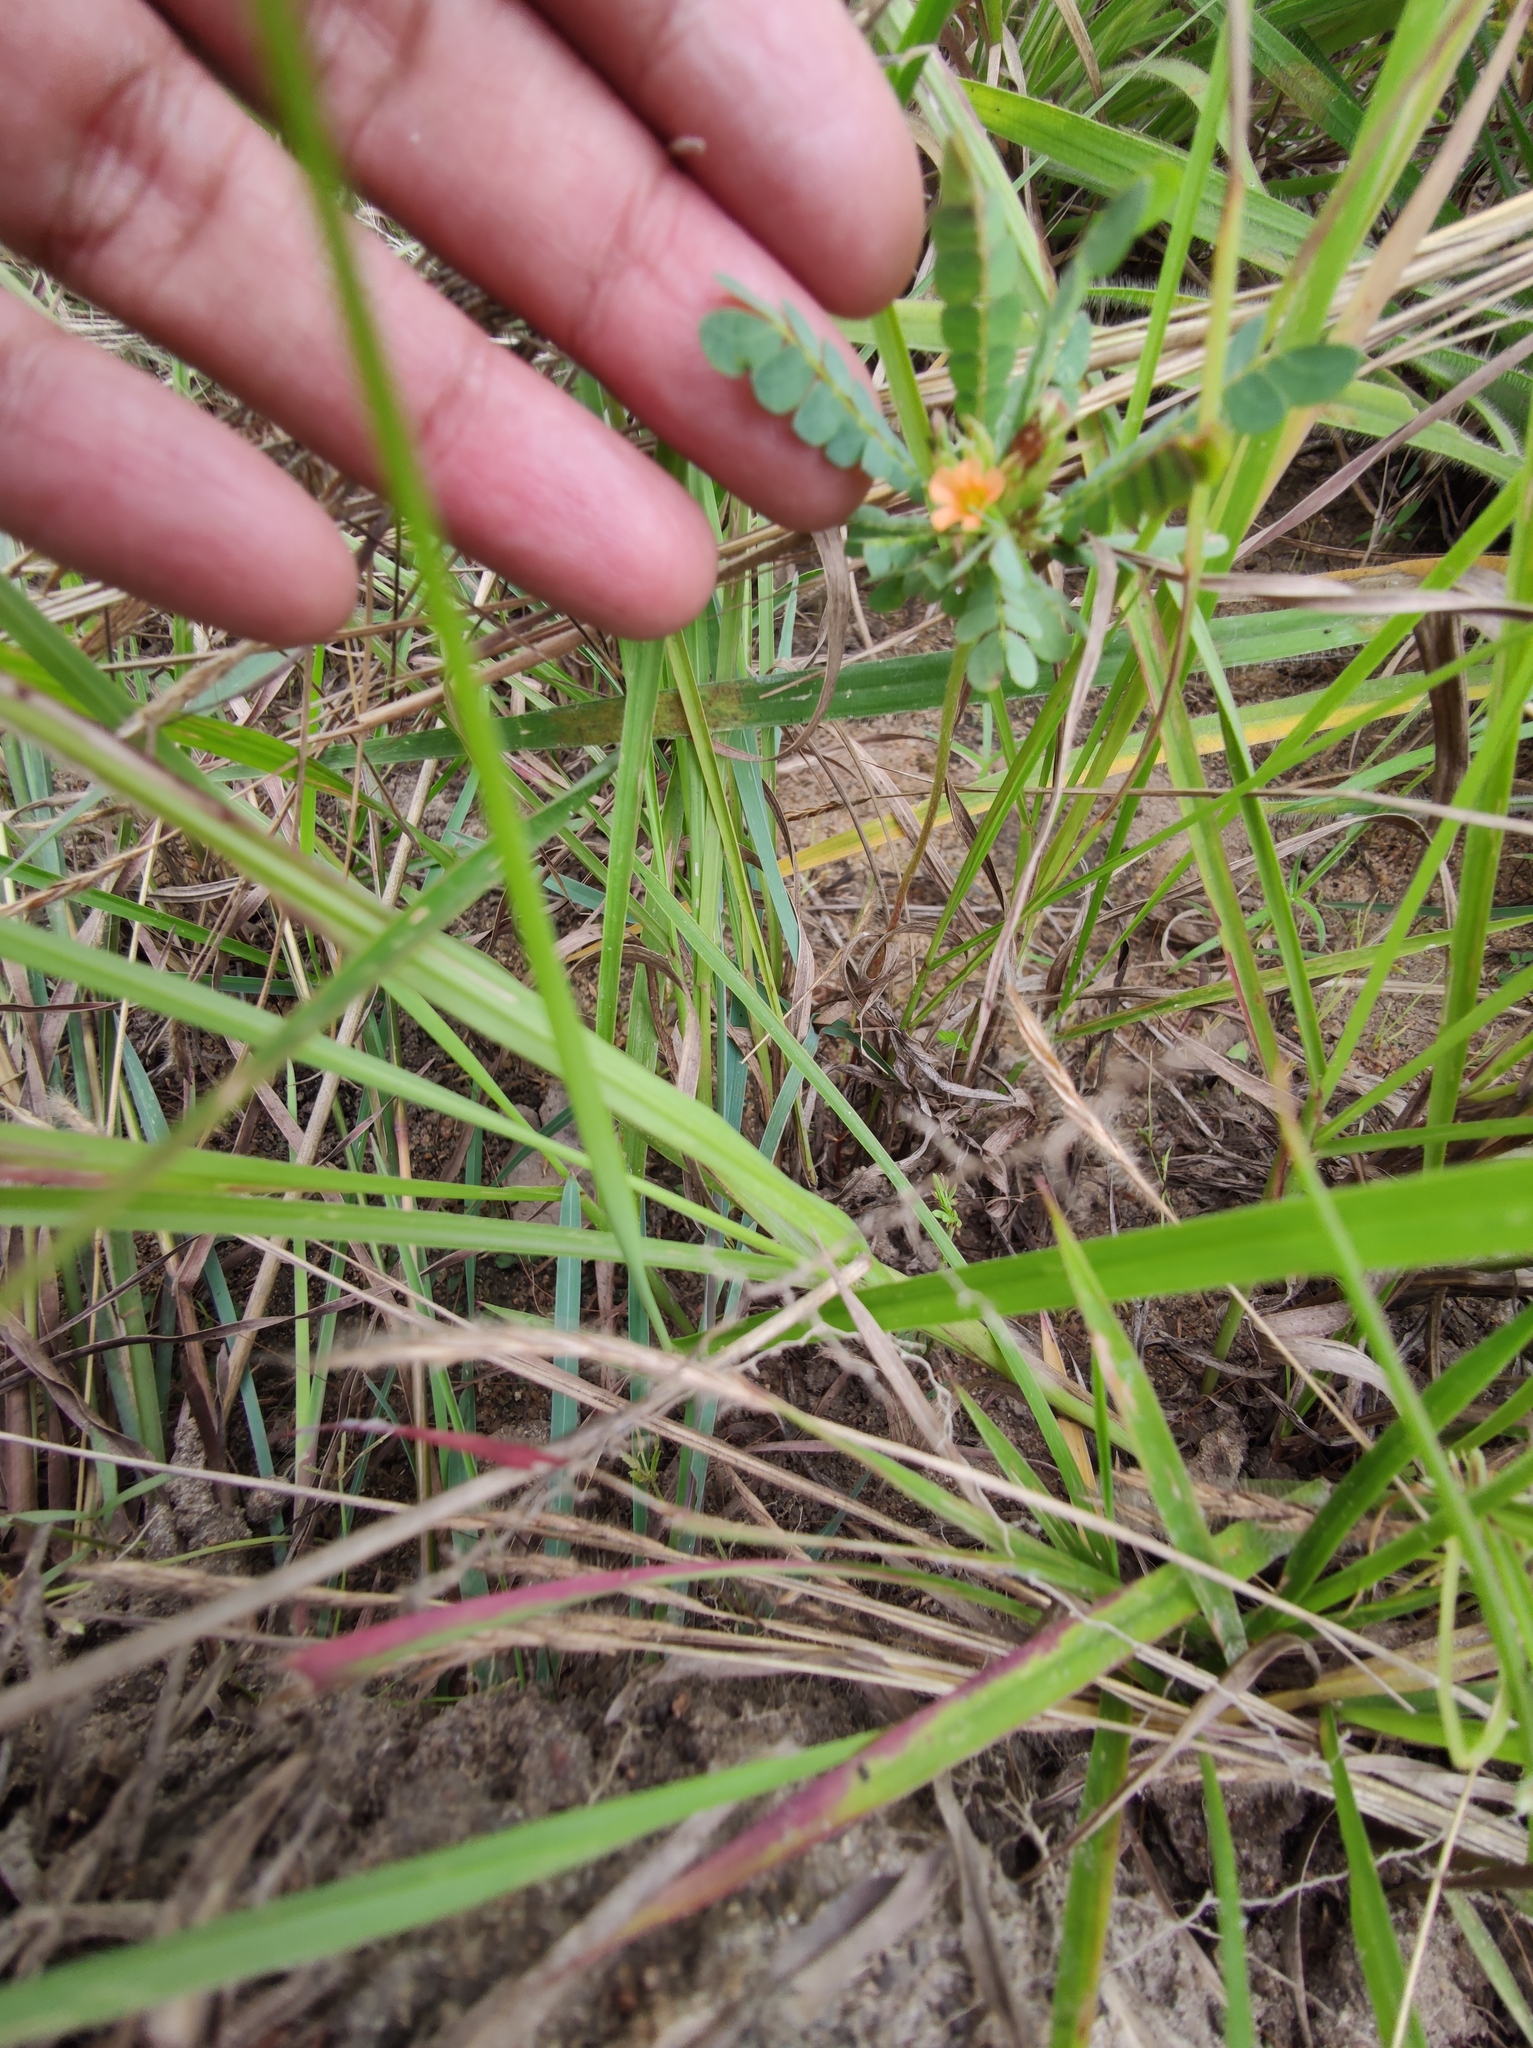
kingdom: Plantae
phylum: Tracheophyta
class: Magnoliopsida
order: Oxalidales
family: Oxalidaceae
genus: Biophytum
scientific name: Biophytum umbraculum
